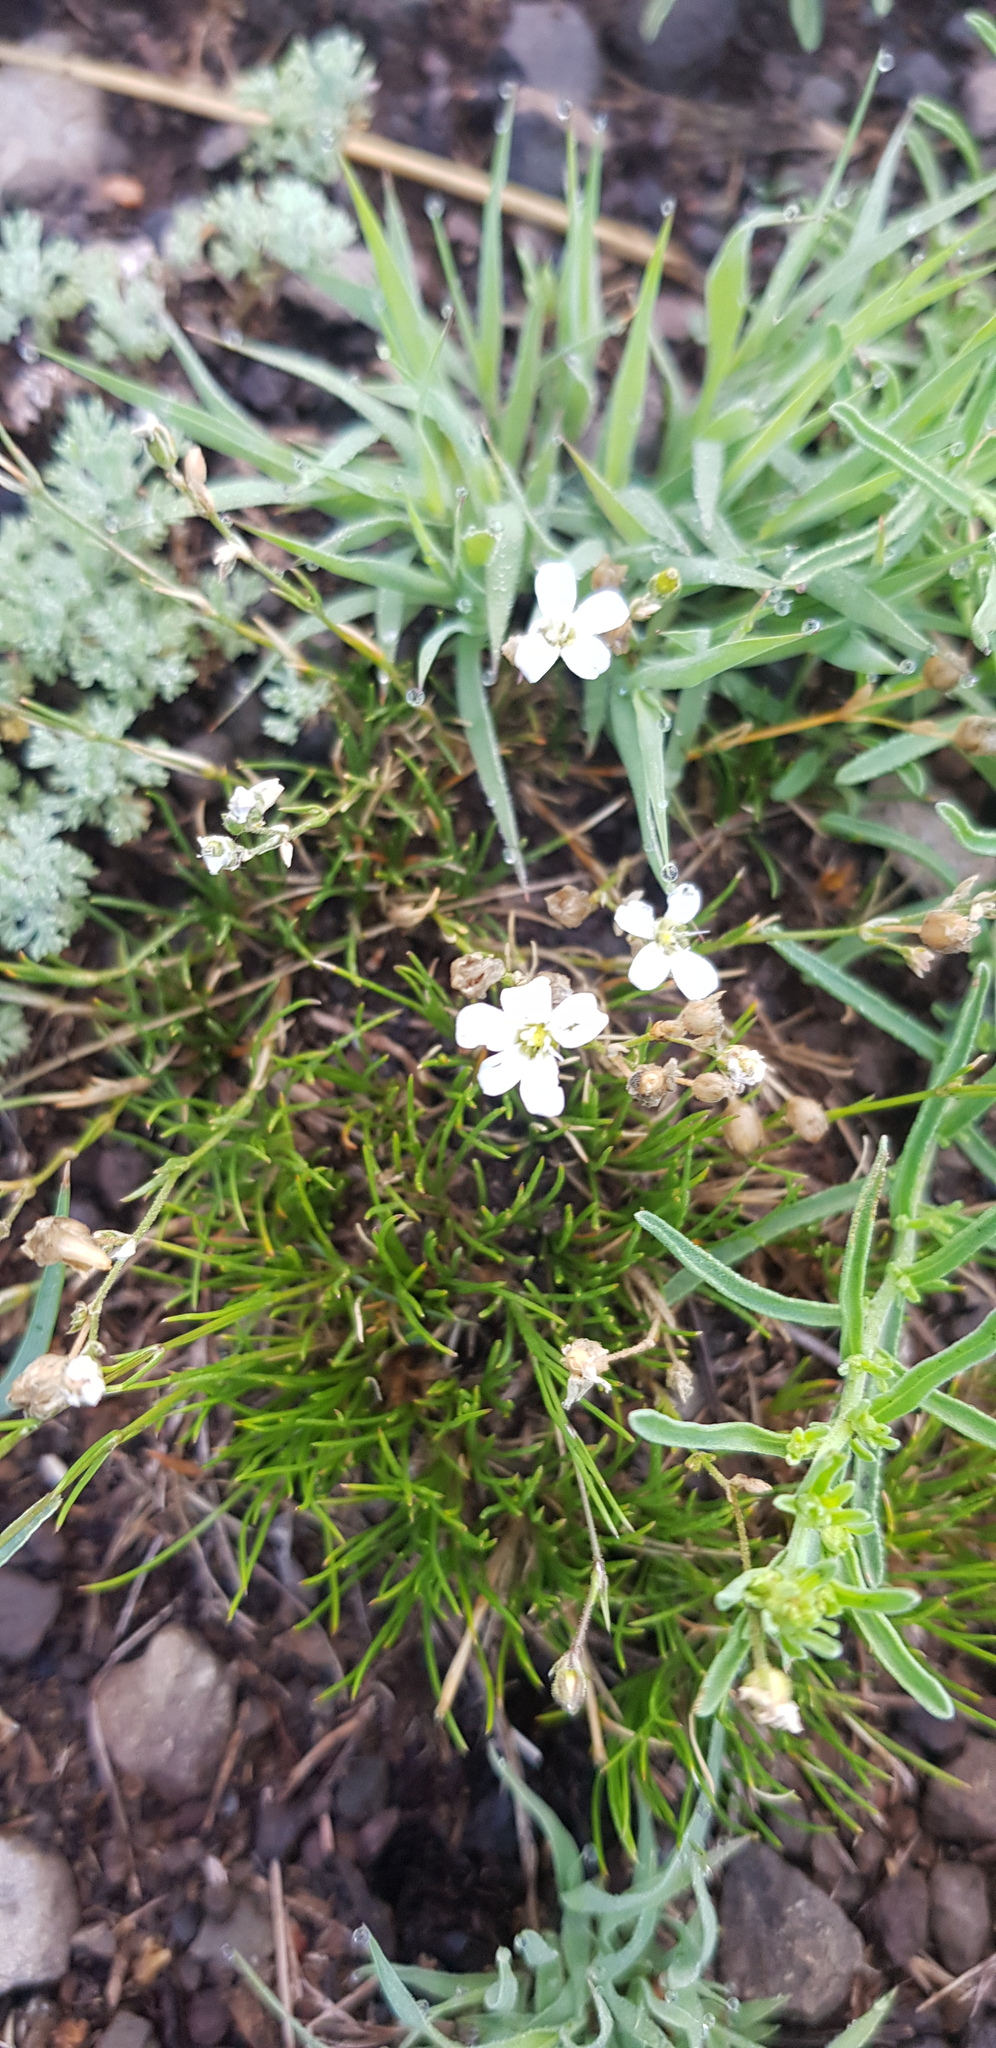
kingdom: Plantae
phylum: Tracheophyta
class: Magnoliopsida
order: Caryophyllales
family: Caryophyllaceae
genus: Eremogone
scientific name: Eremogone capillaris
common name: Slender mountain sandwort
